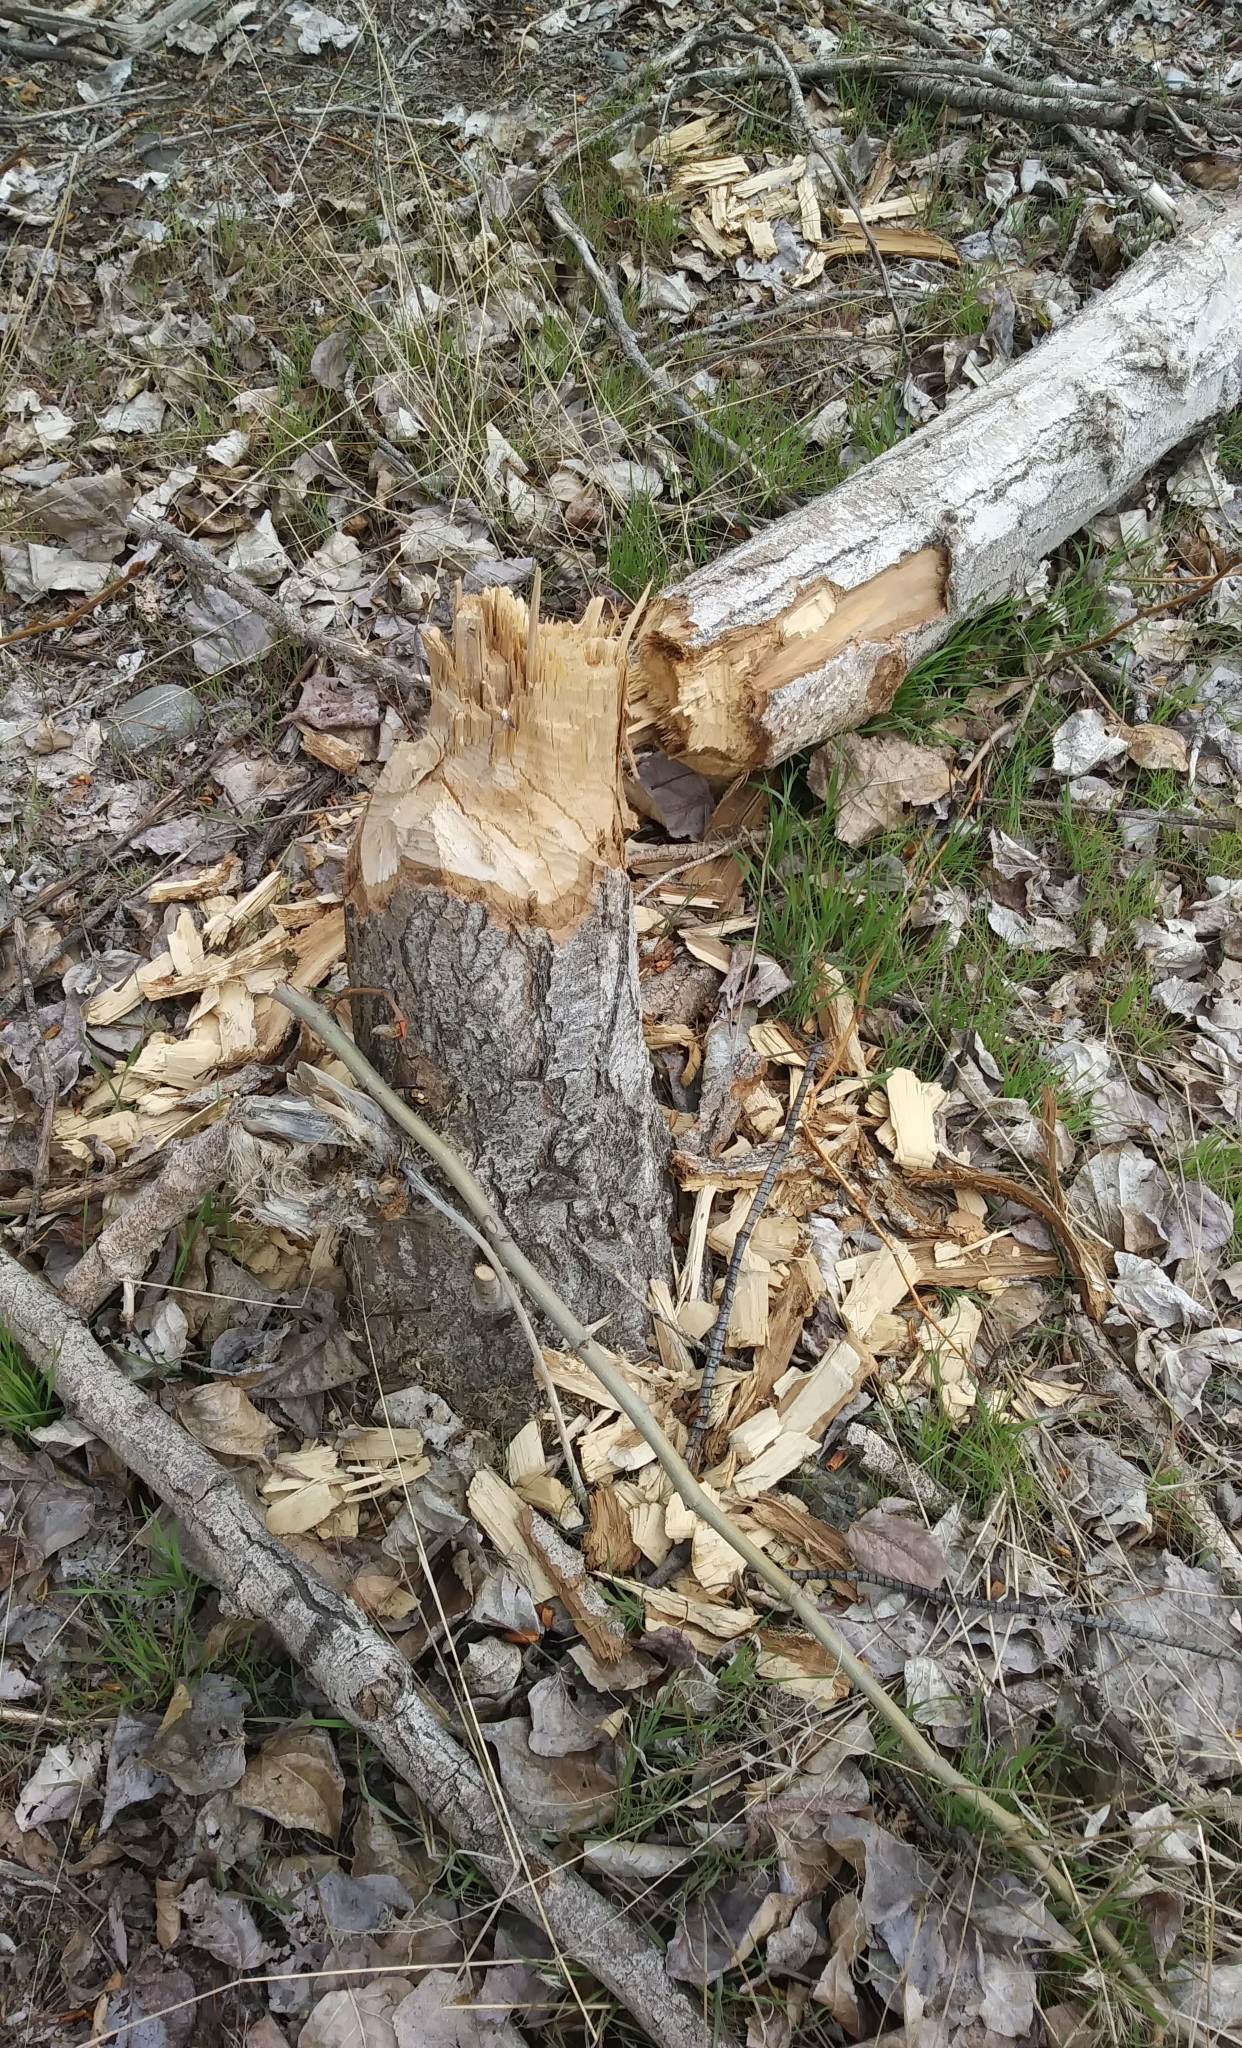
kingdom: Animalia
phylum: Chordata
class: Mammalia
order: Rodentia
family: Castoridae
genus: Castor
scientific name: Castor canadensis
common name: American beaver
